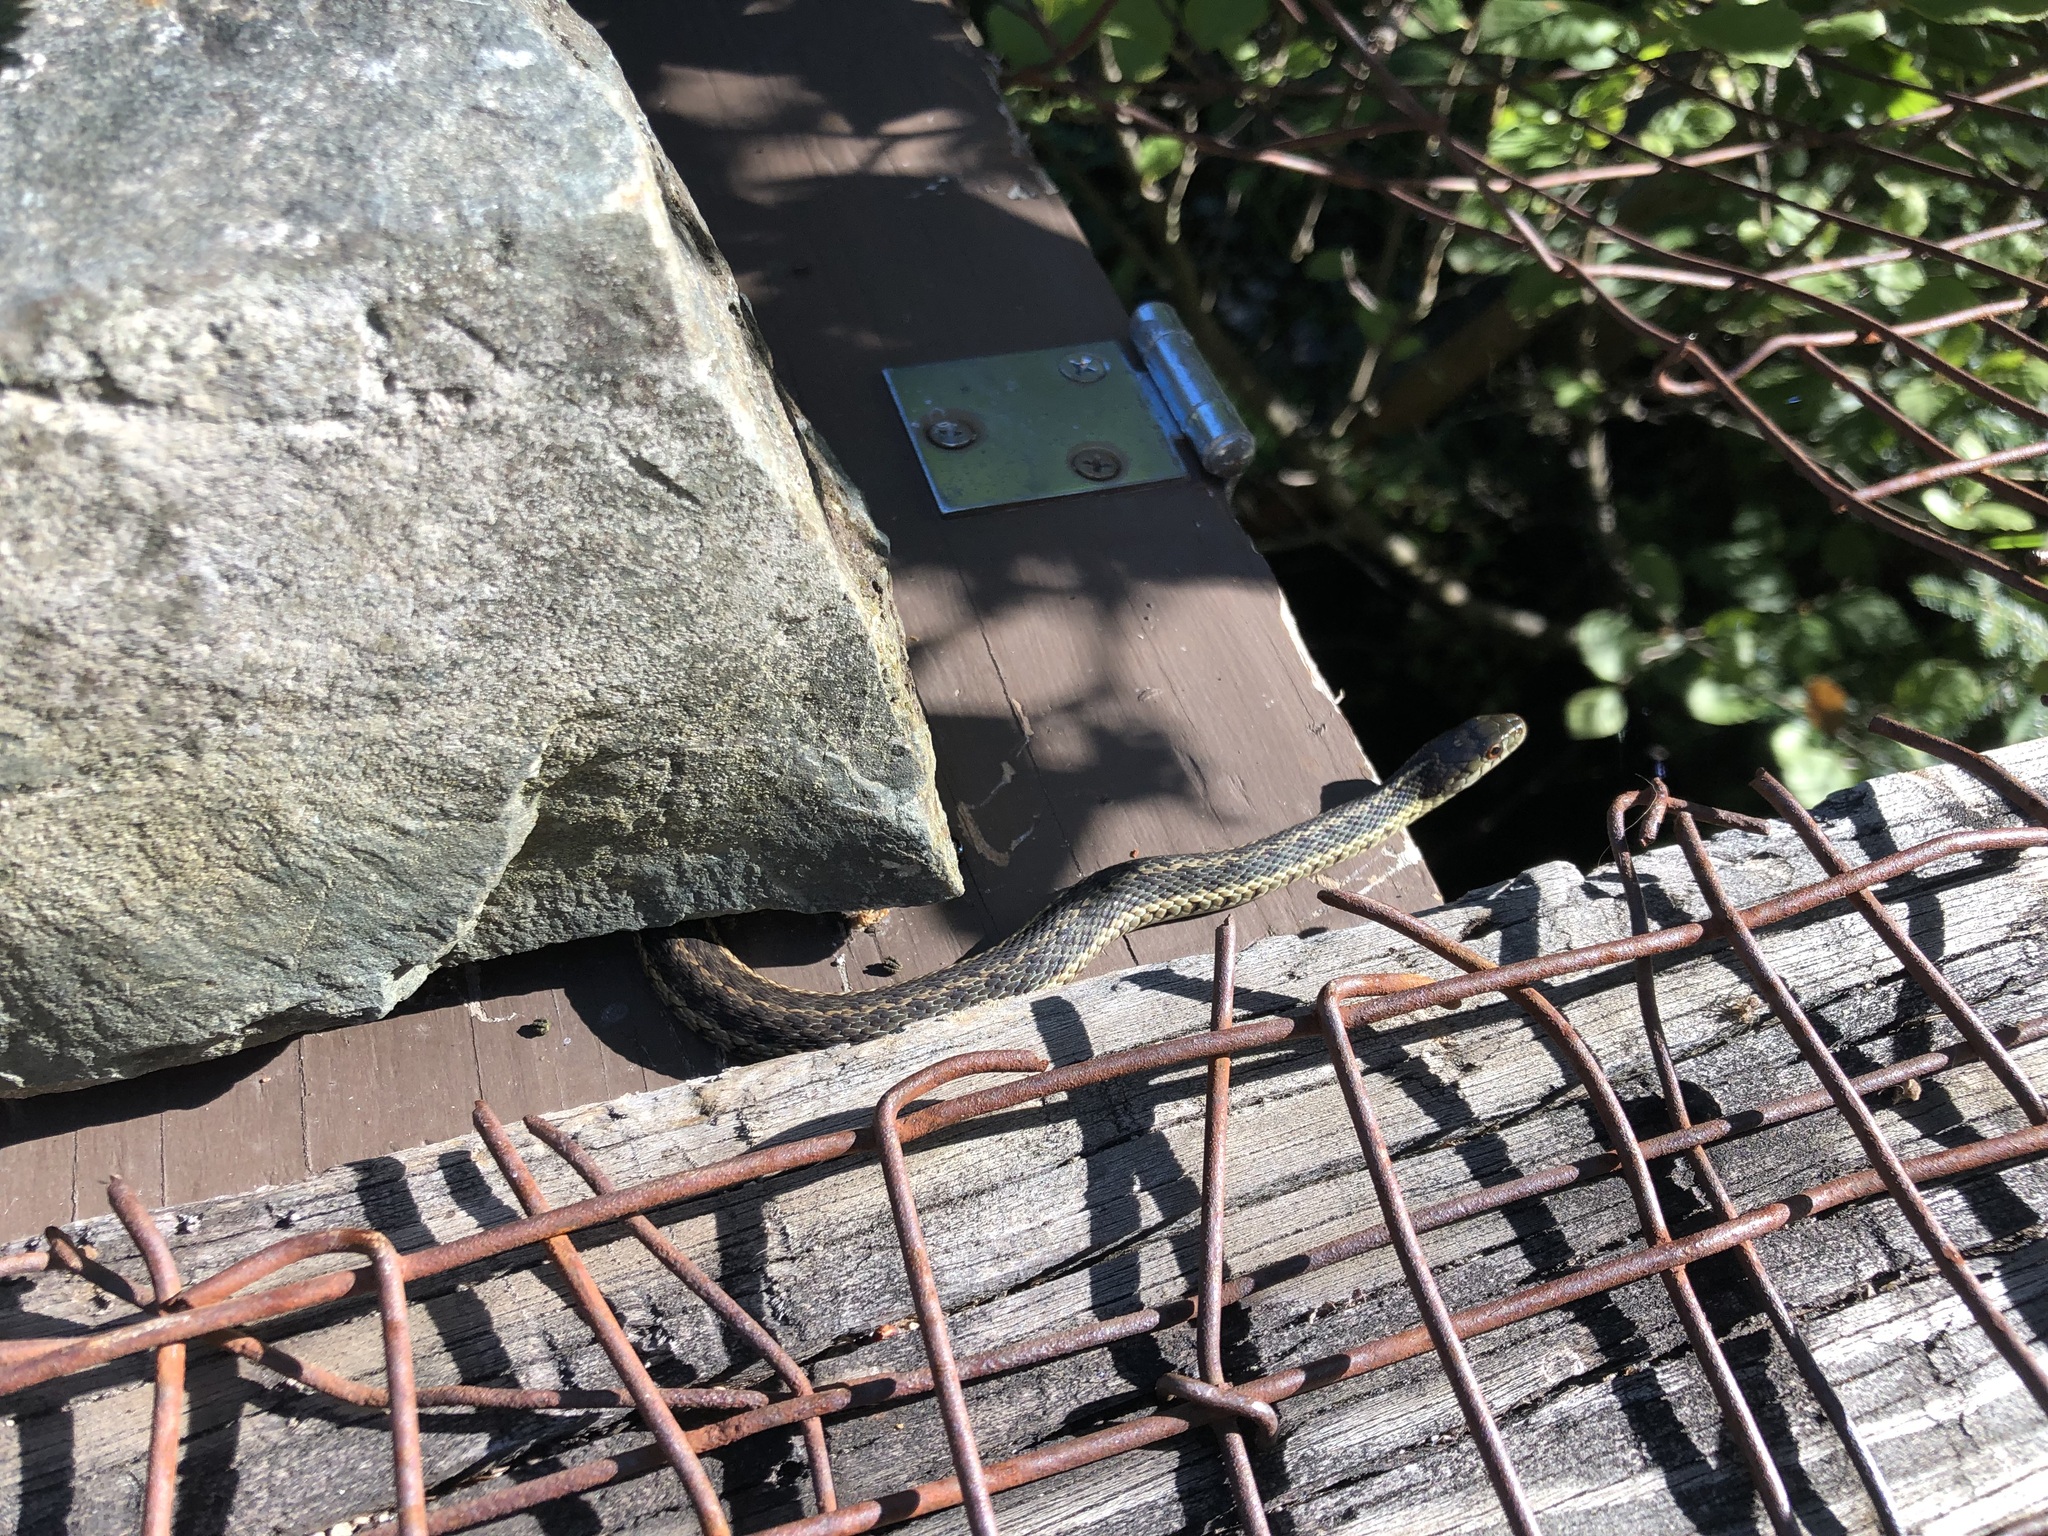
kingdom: Animalia
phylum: Chordata
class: Squamata
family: Colubridae
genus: Thamnophis
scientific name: Thamnophis sirtalis
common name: Common garter snake
